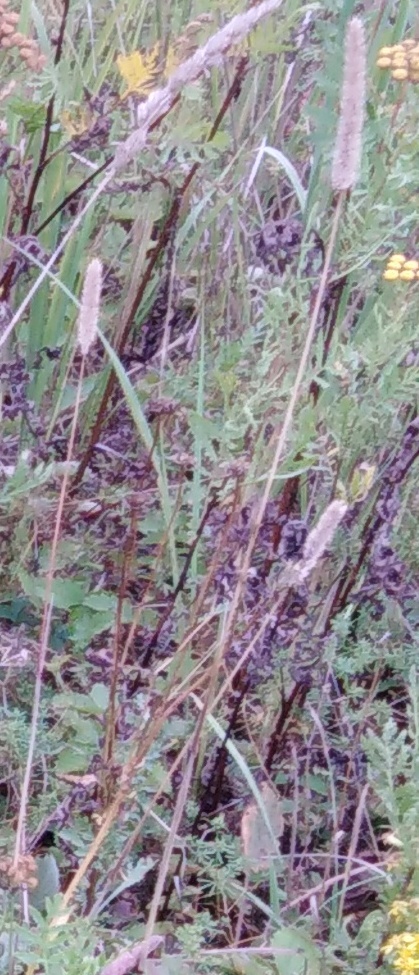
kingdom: Plantae
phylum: Tracheophyta
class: Liliopsida
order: Poales
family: Poaceae
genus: Phleum
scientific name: Phleum pratense
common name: Timothy grass
